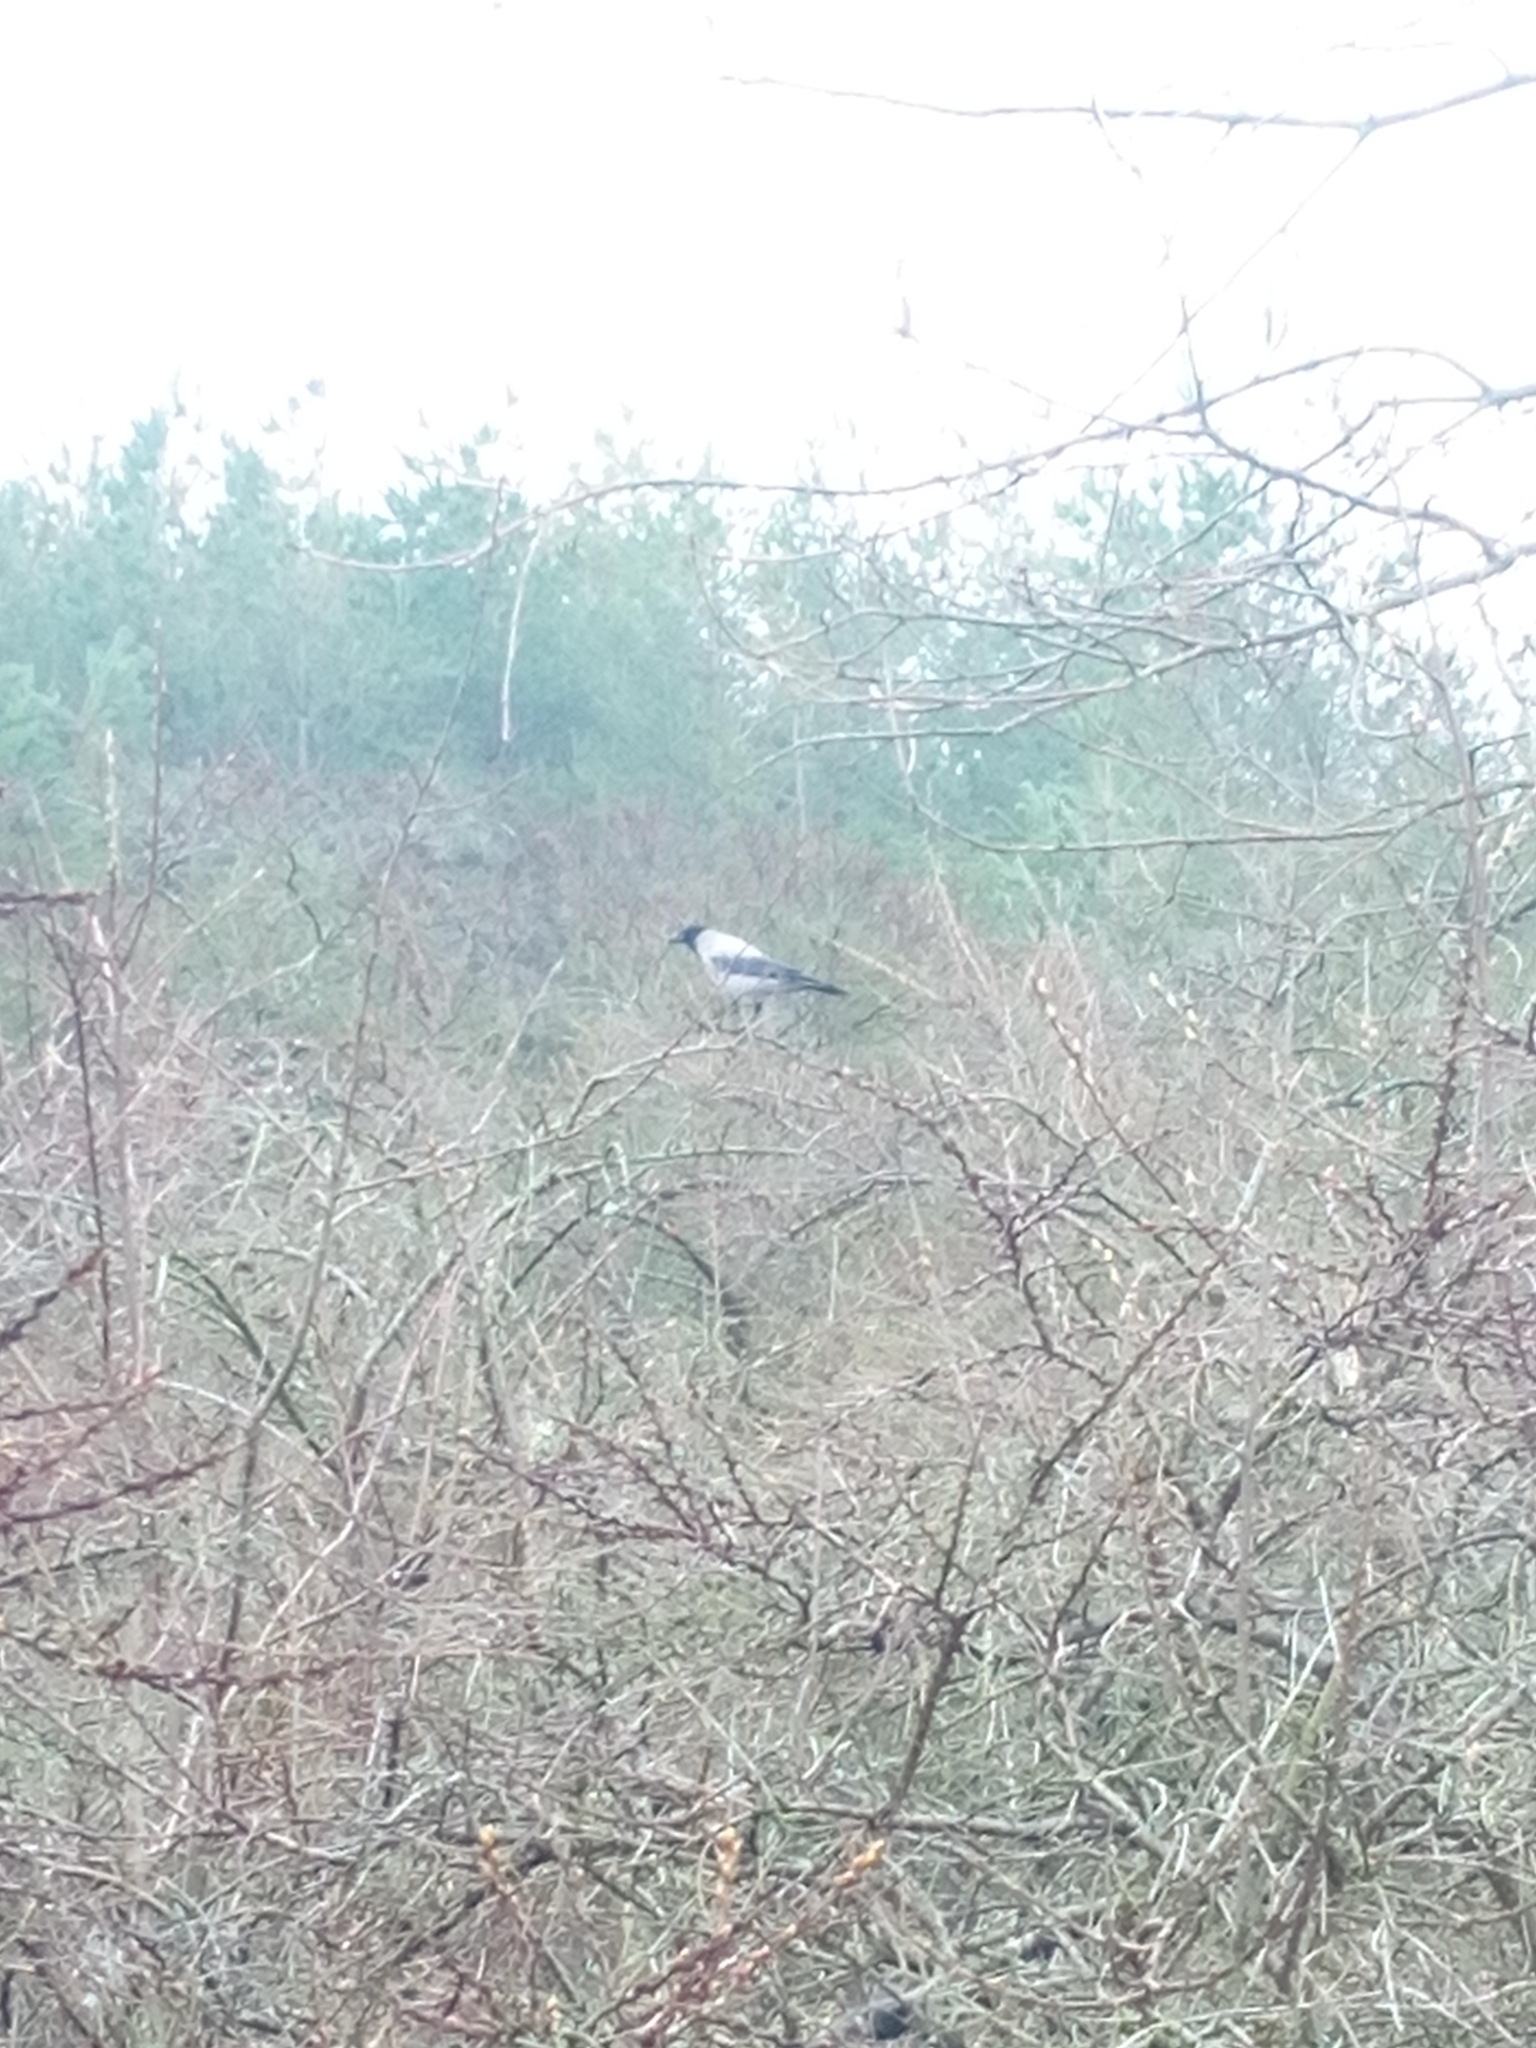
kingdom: Animalia
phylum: Chordata
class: Aves
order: Passeriformes
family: Corvidae
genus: Corvus
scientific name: Corvus cornix
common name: Hooded crow
